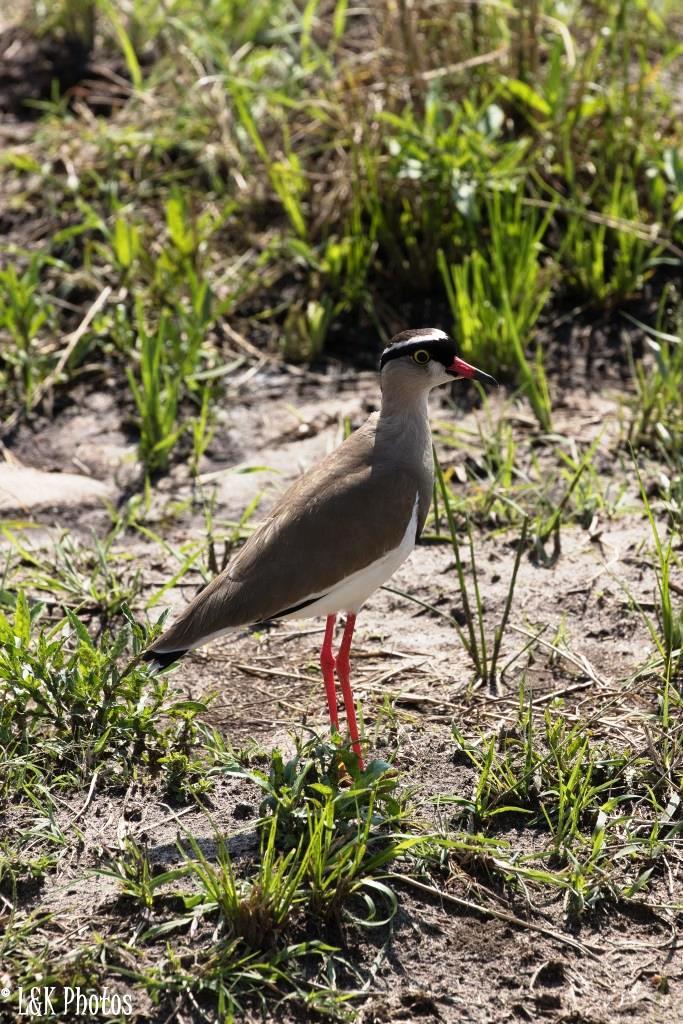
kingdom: Animalia
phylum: Chordata
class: Aves
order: Charadriiformes
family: Charadriidae
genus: Vanellus
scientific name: Vanellus coronatus
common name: Crowned lapwing
